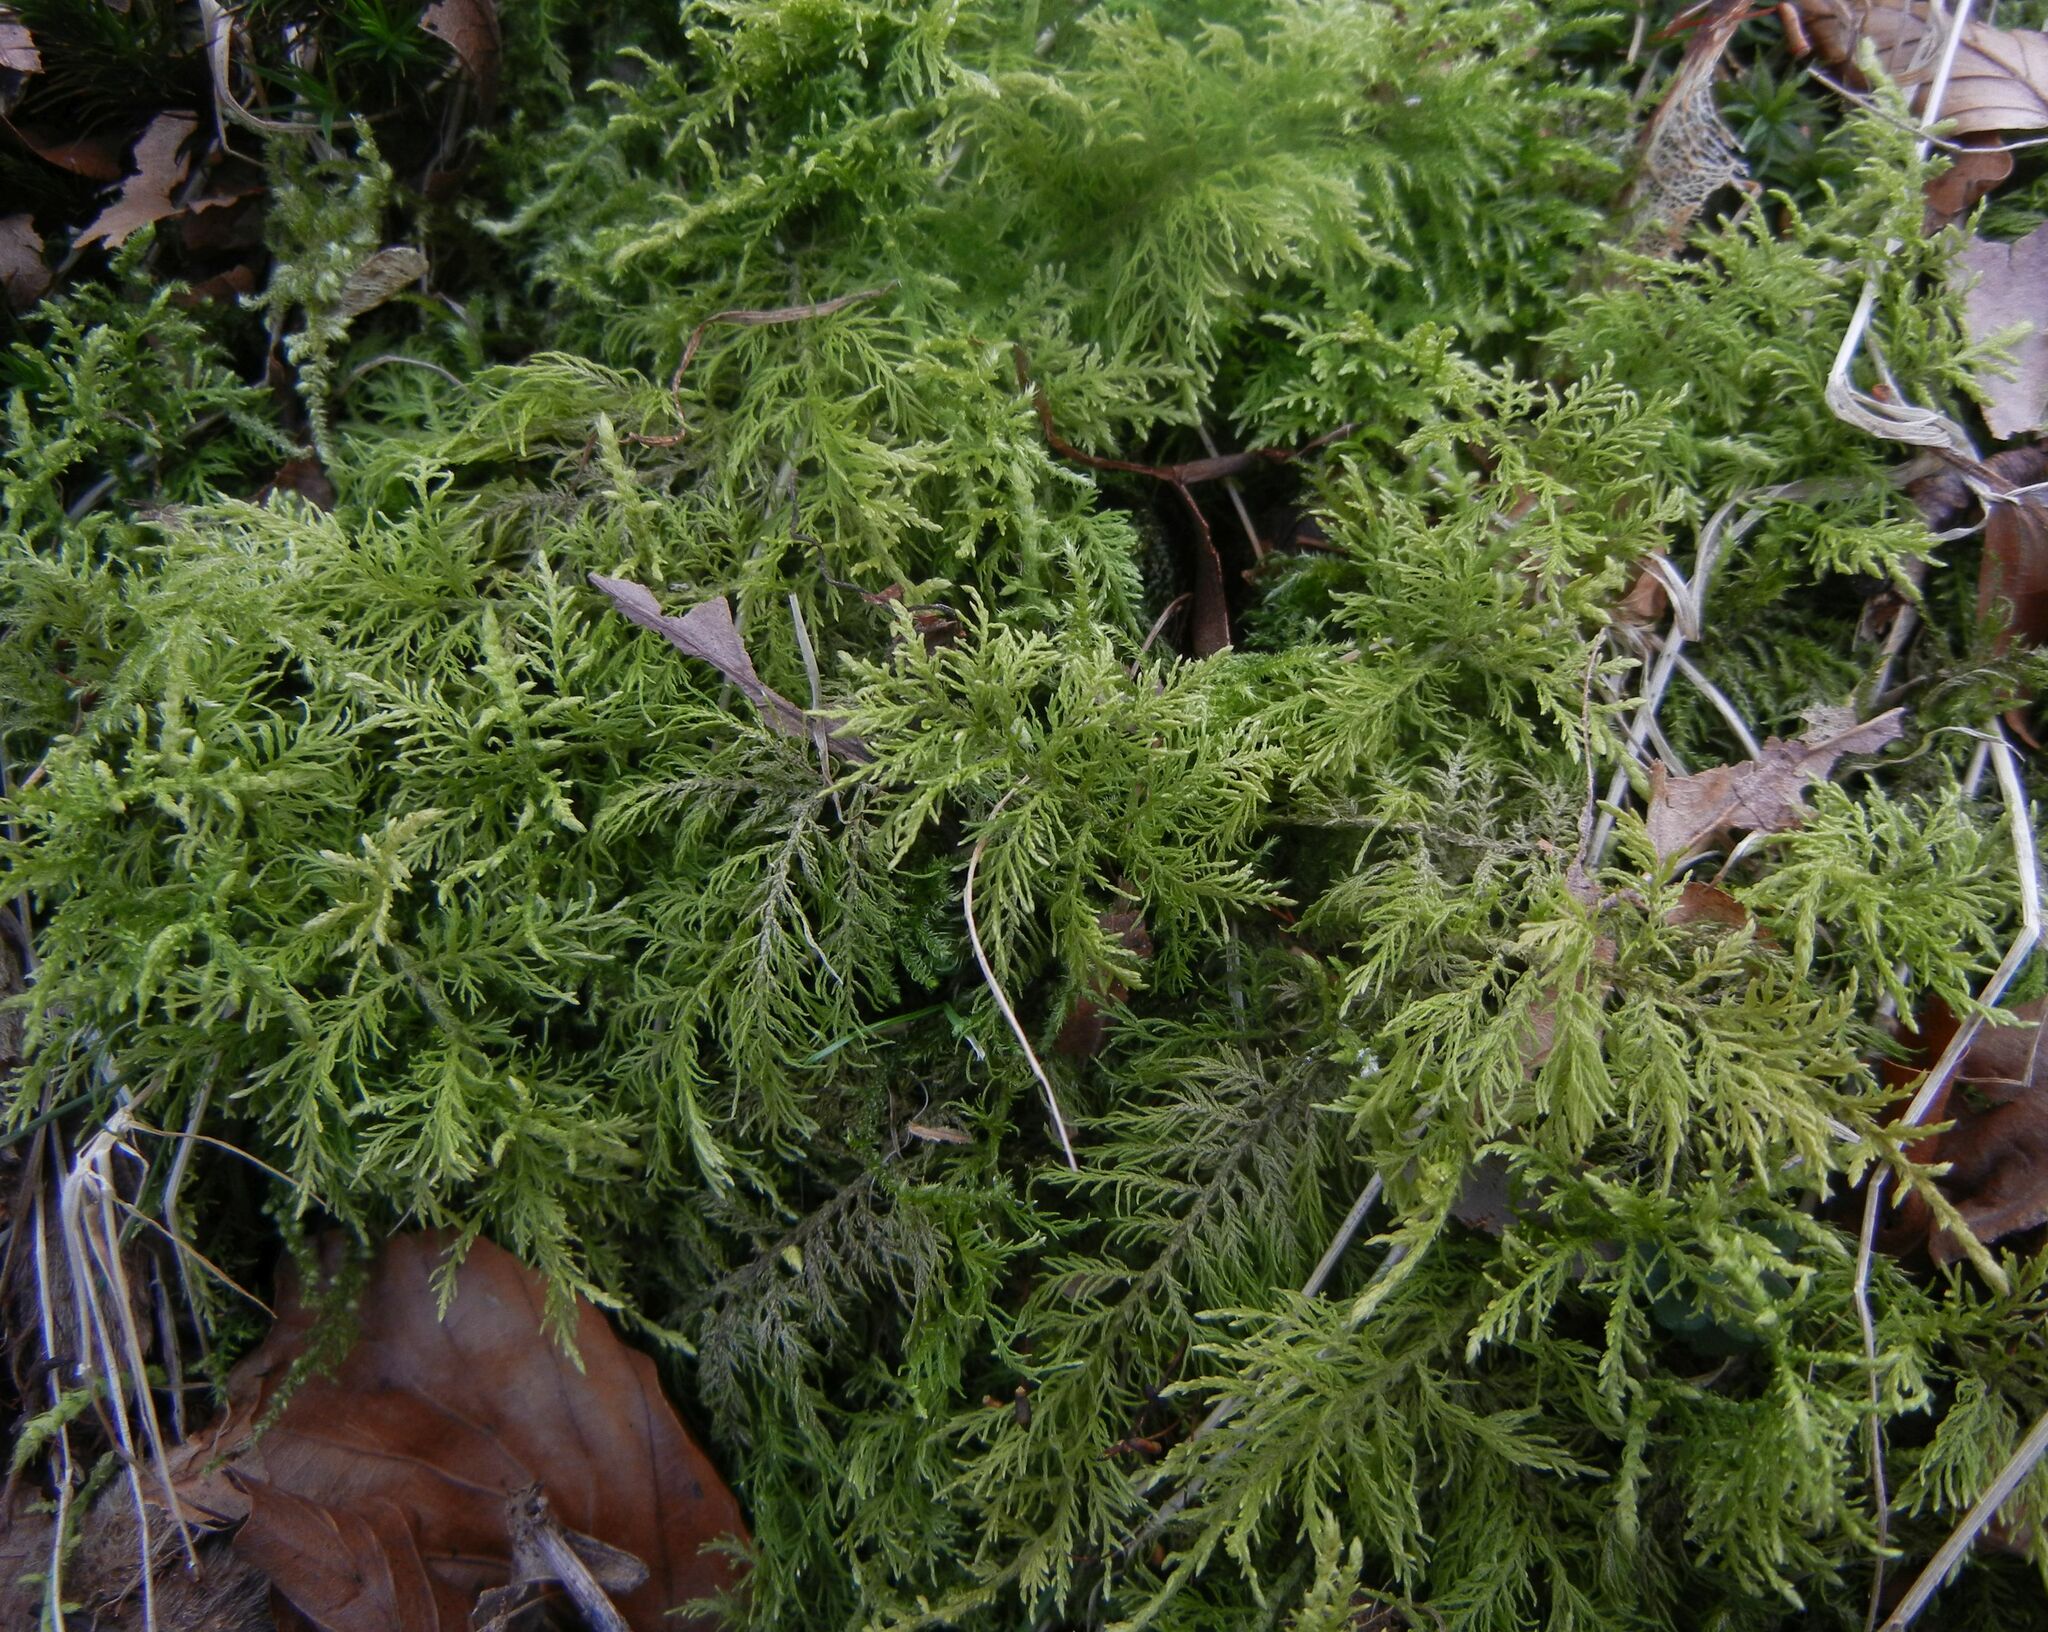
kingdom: Plantae
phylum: Bryophyta
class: Bryopsida
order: Hypnales
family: Thuidiaceae
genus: Thuidium
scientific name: Thuidium tamariscinum
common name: Common tamarisk-moss
